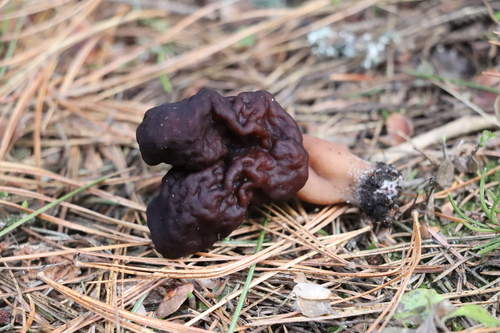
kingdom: Fungi
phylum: Ascomycota
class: Pezizomycetes
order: Pezizales
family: Discinaceae
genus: Gyromitra
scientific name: Gyromitra
